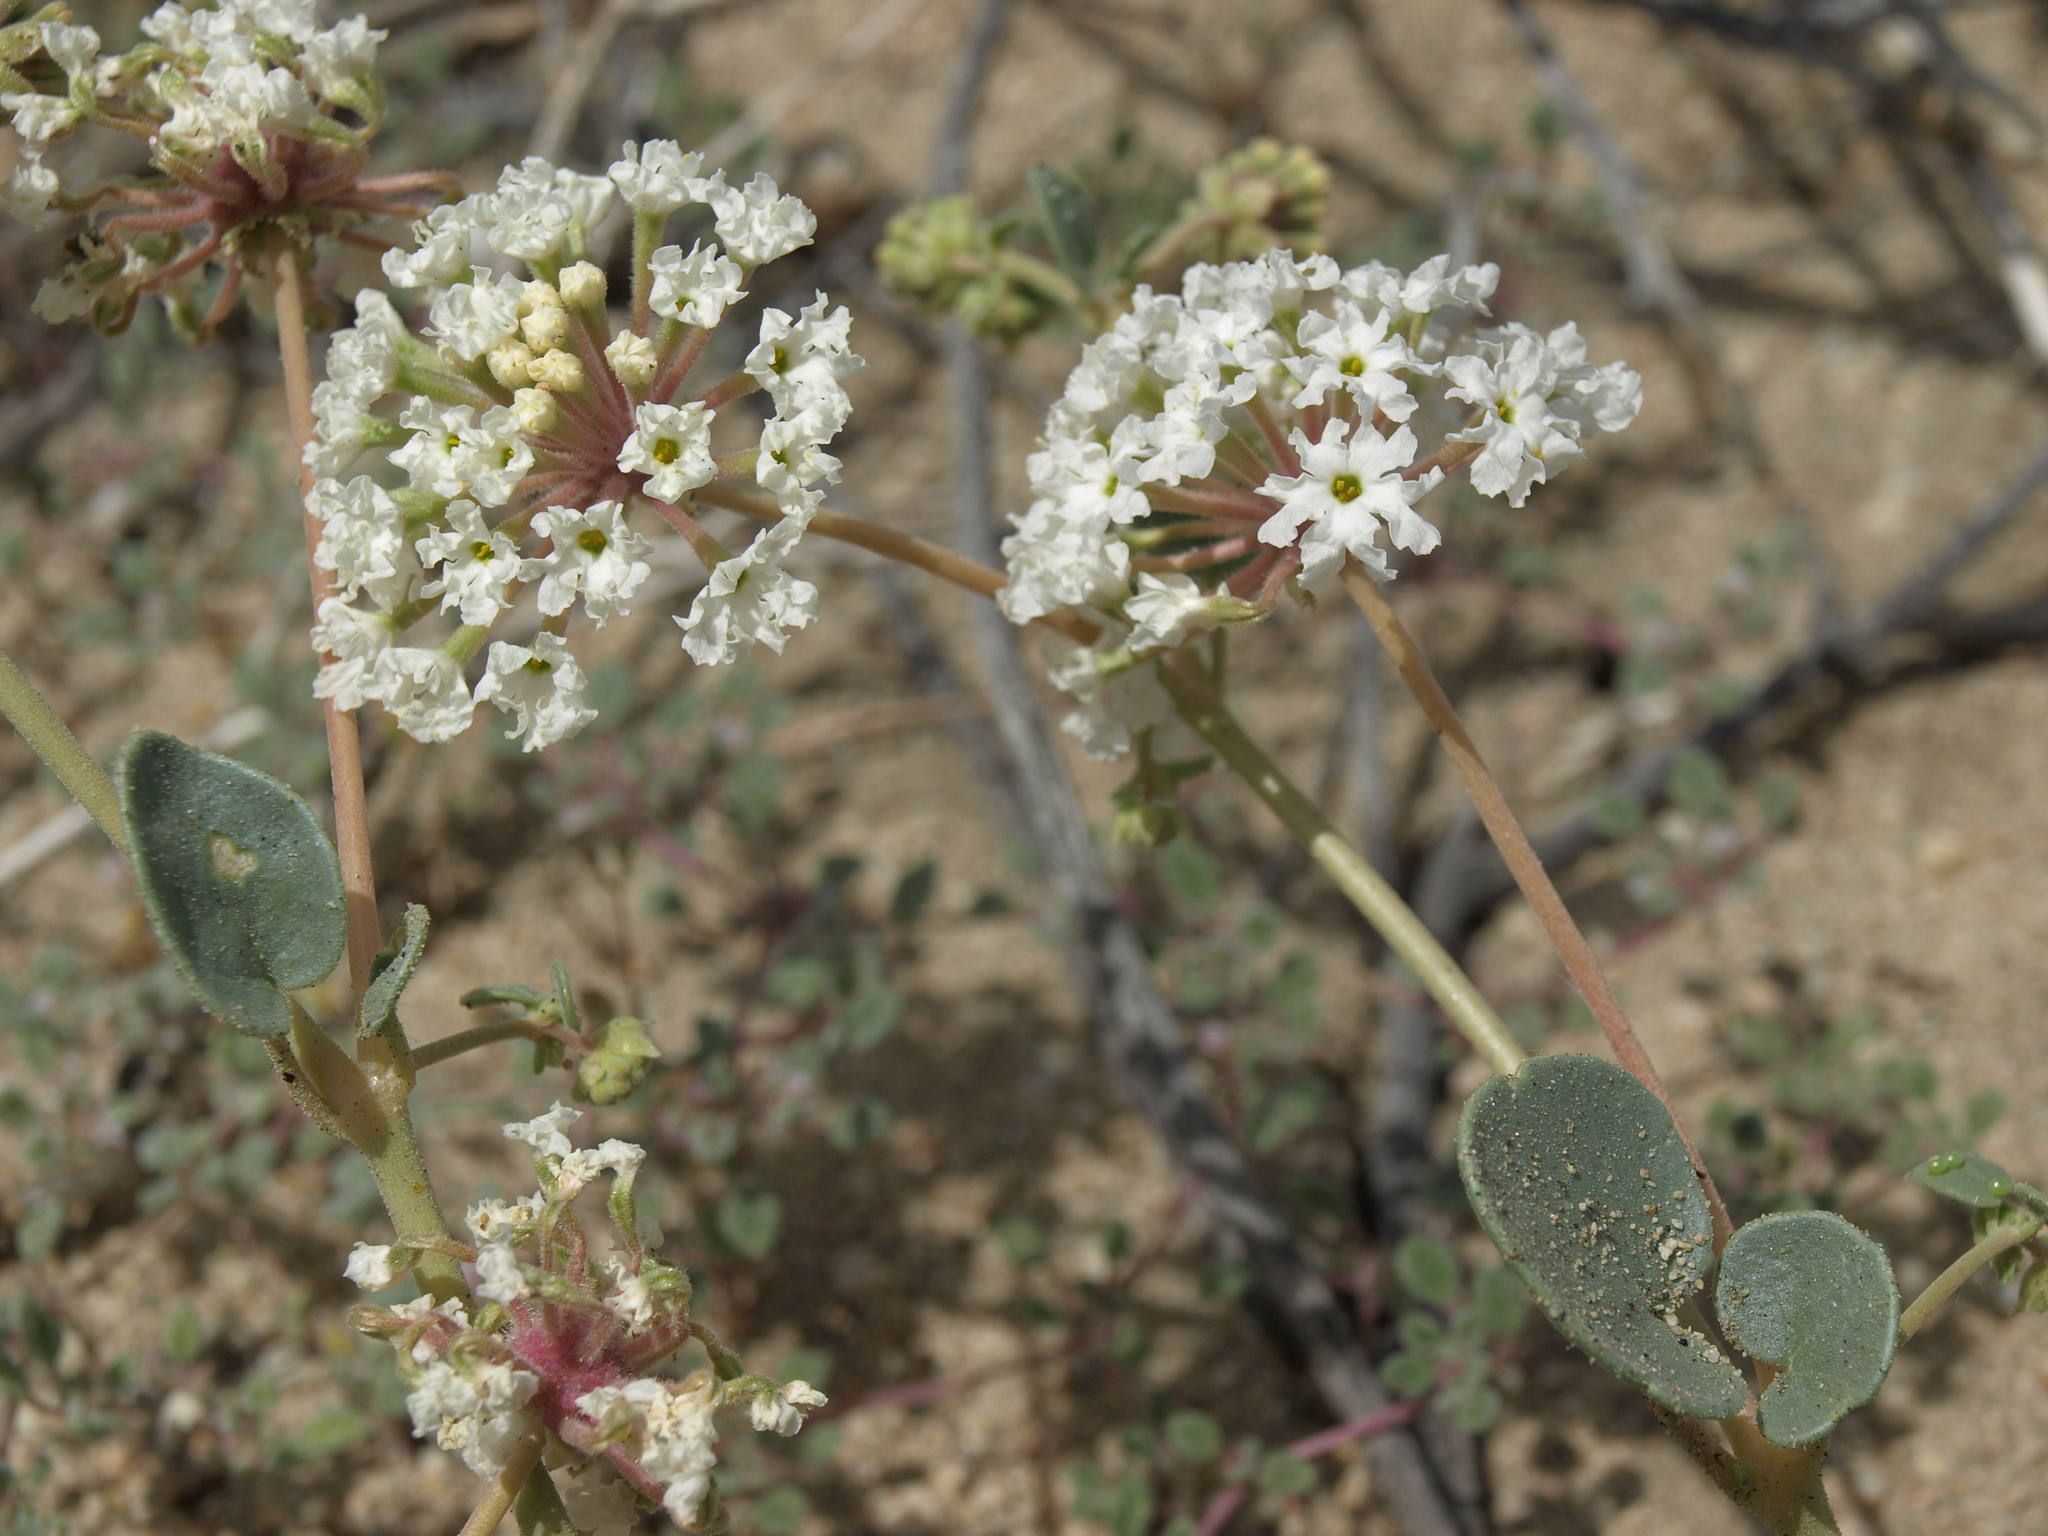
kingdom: Plantae
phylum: Tracheophyta
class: Magnoliopsida
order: Caryophyllales
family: Nyctaginaceae
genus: Abronia
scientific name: Abronia turbinata
